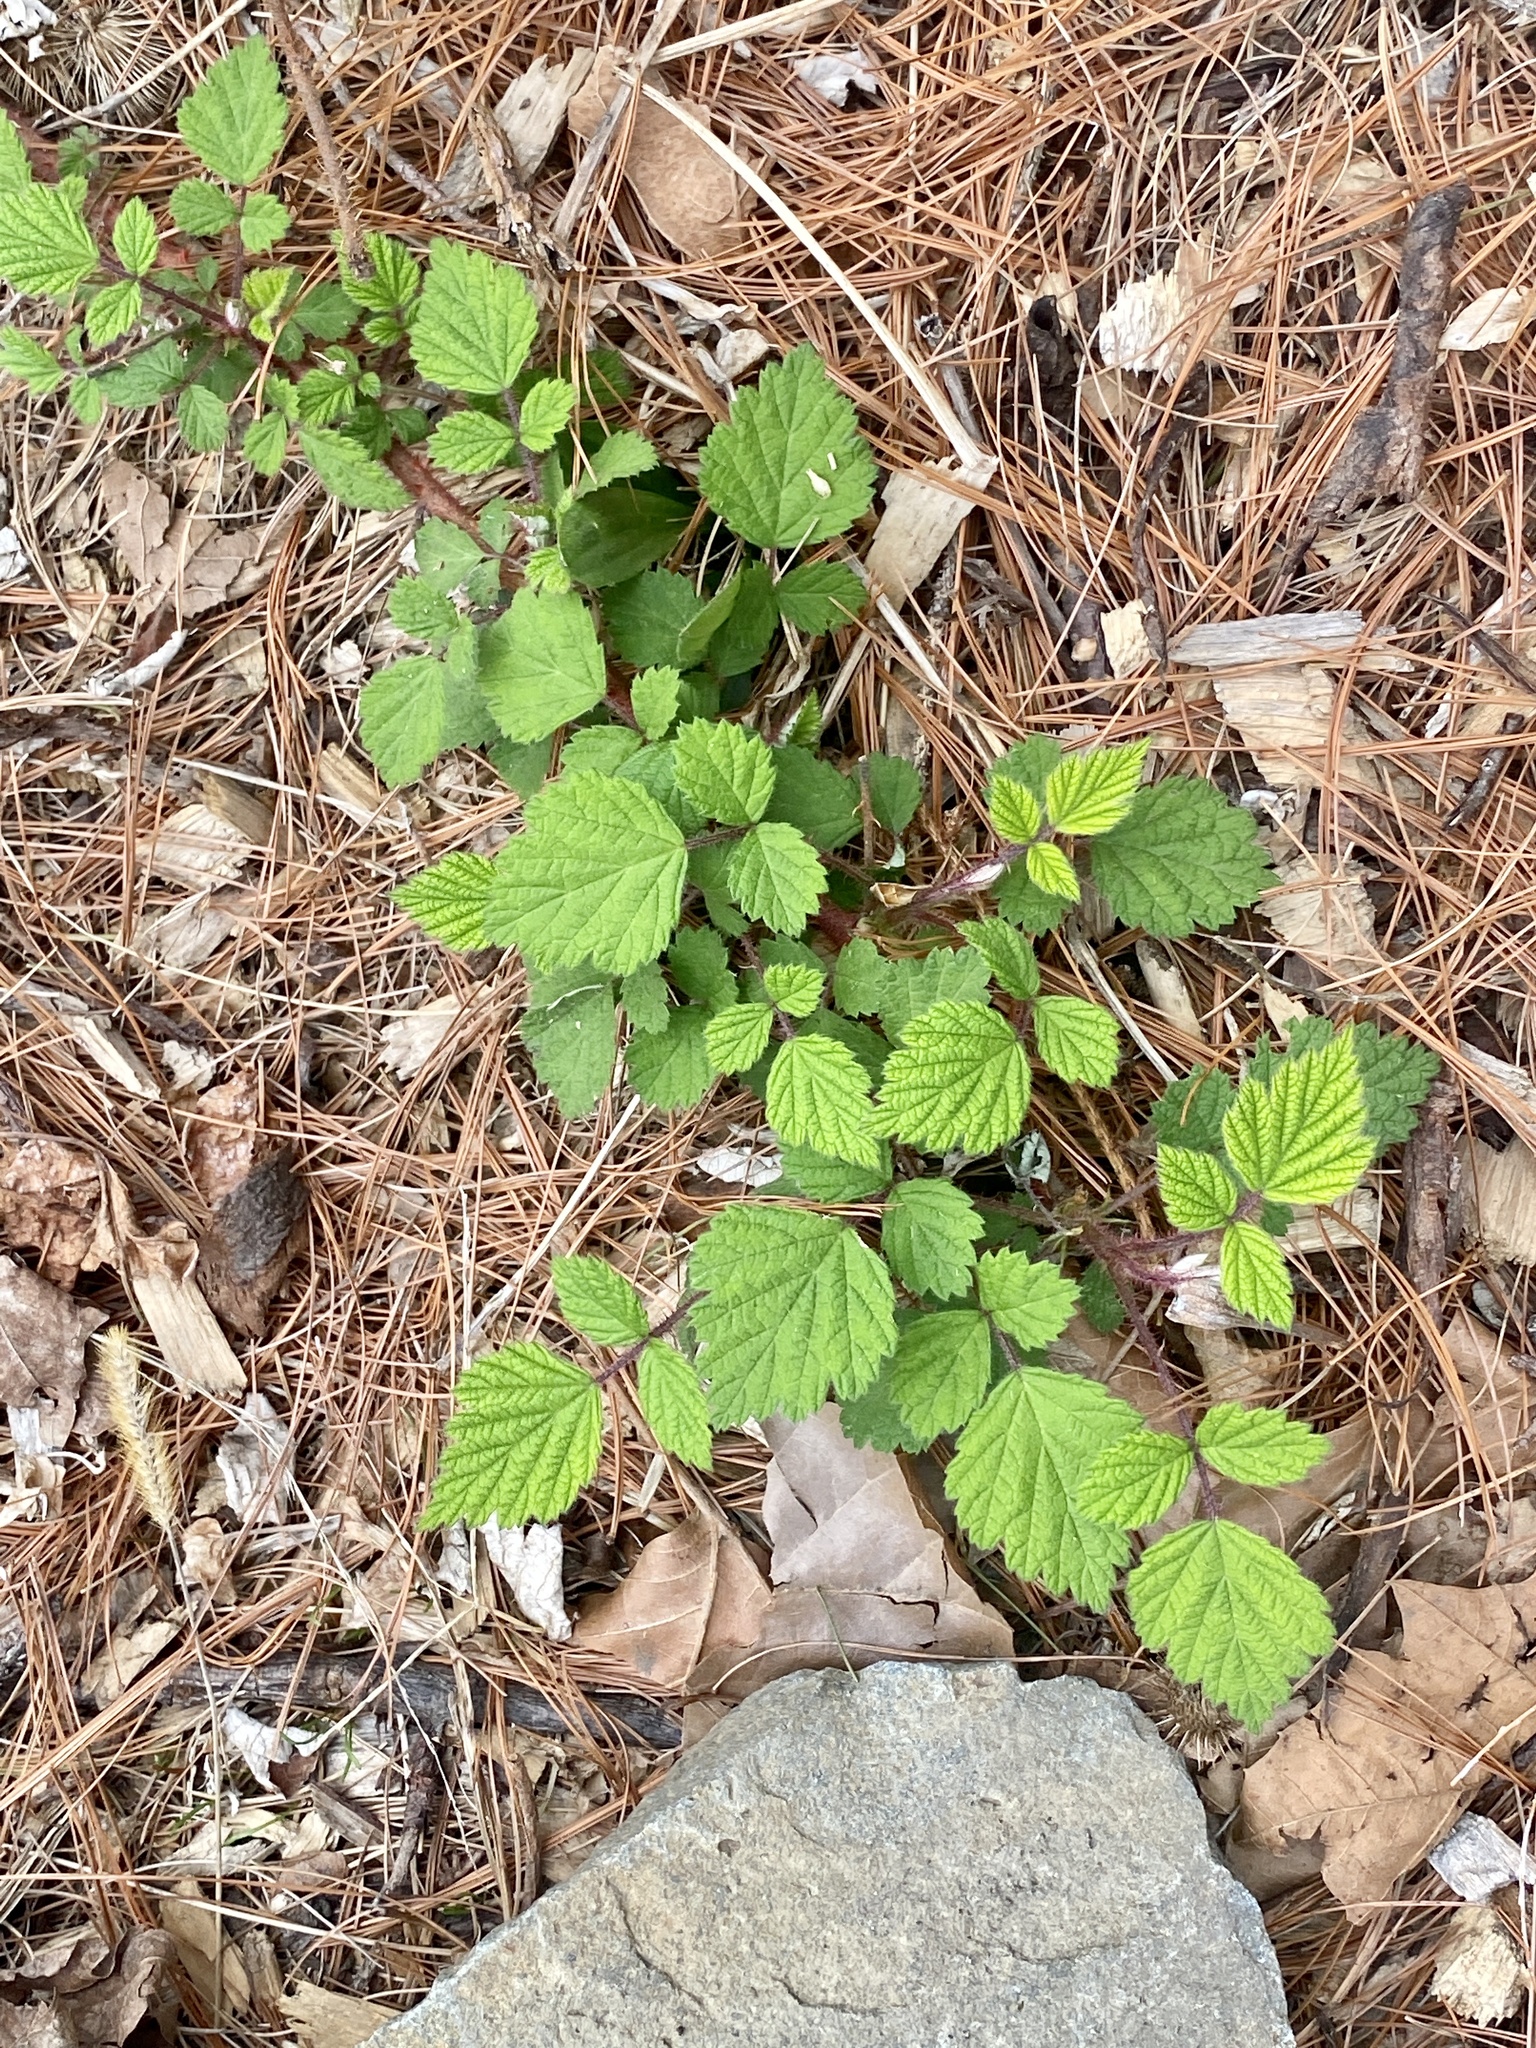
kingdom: Plantae
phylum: Tracheophyta
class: Magnoliopsida
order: Rosales
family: Rosaceae
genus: Rubus
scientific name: Rubus phoenicolasius
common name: Japanese wineberry
